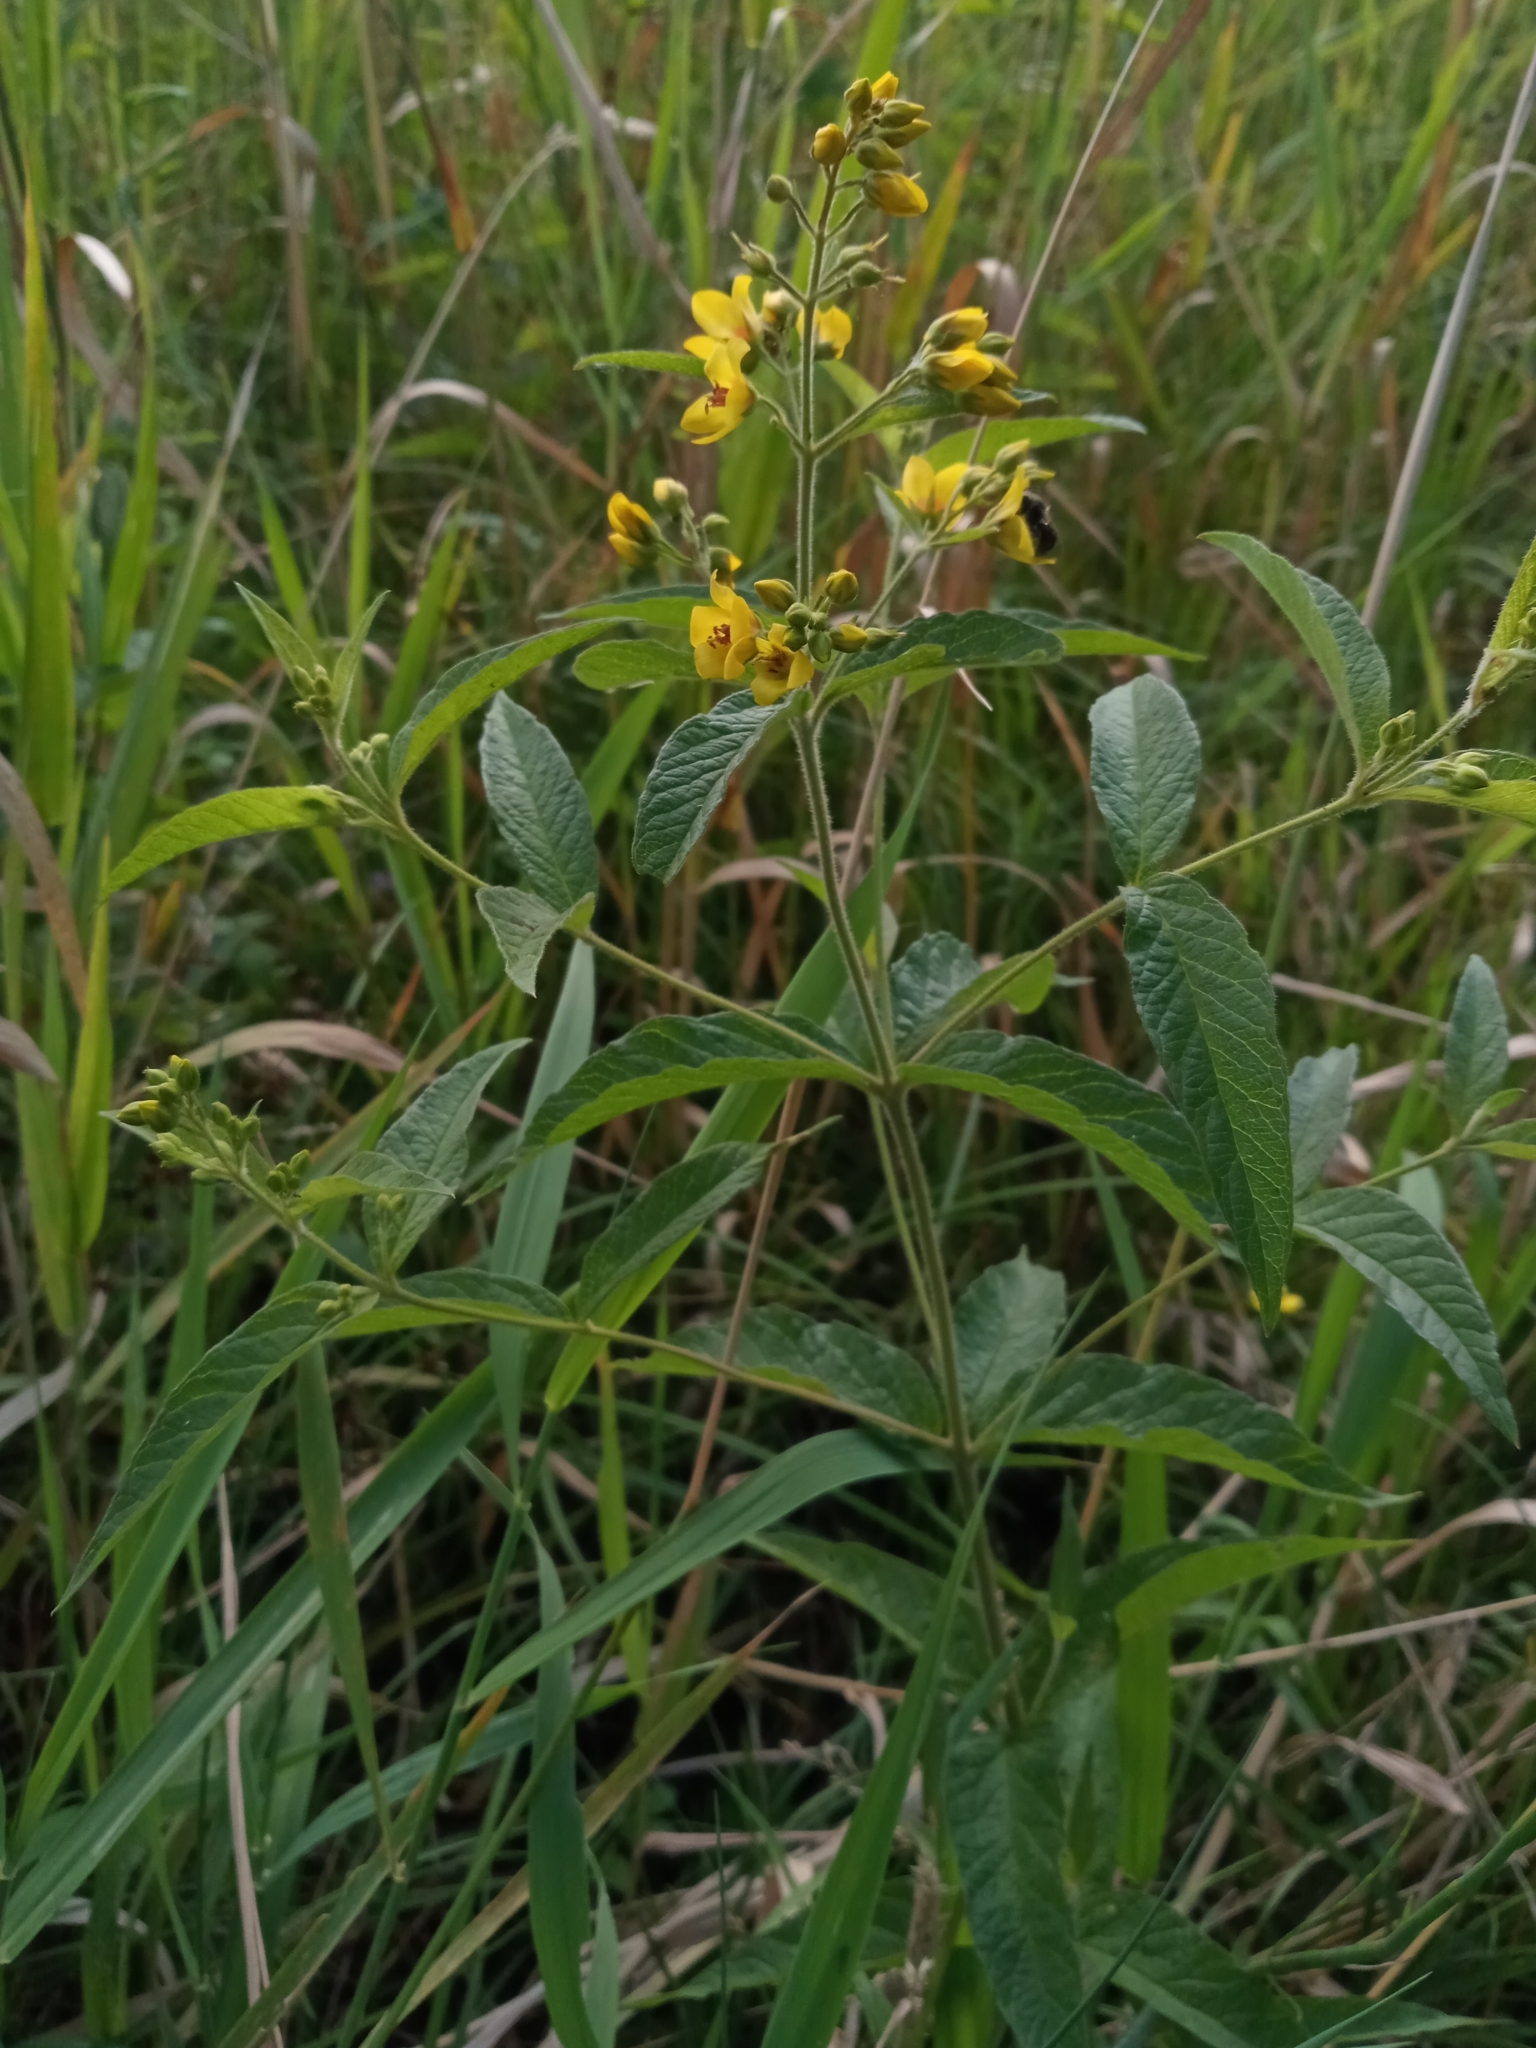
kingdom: Plantae
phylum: Tracheophyta
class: Magnoliopsida
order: Ericales
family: Primulaceae
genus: Lysimachia
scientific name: Lysimachia vulgaris
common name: Yellow loosestrife
